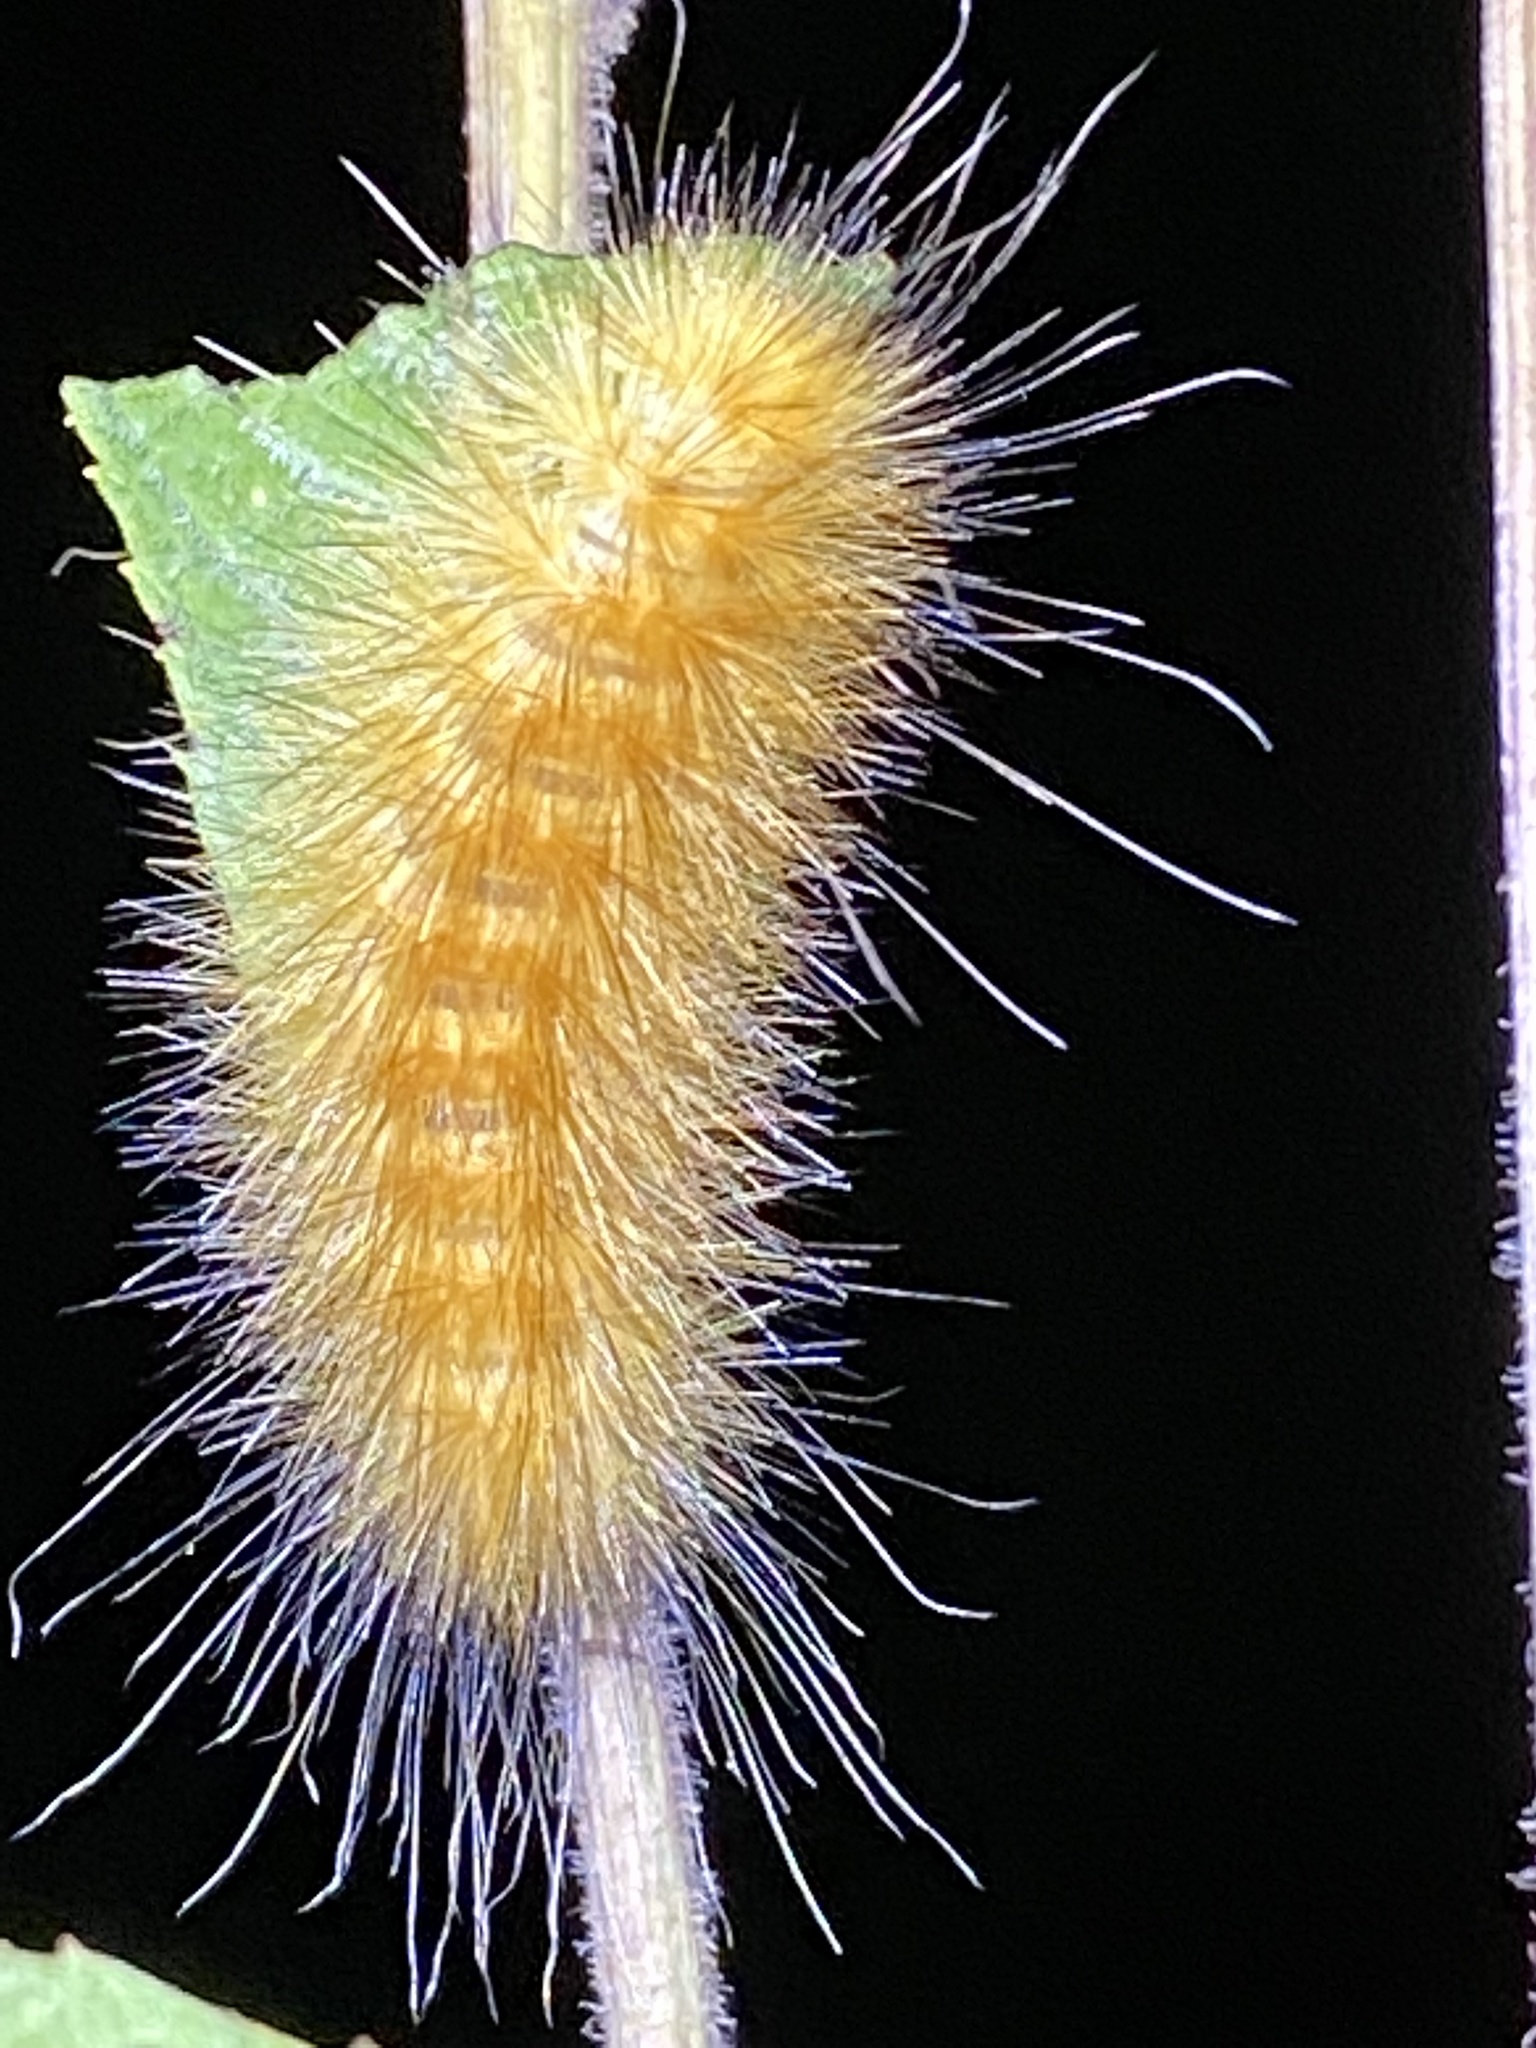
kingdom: Animalia
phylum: Arthropoda
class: Insecta
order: Lepidoptera
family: Erebidae
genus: Spilosoma
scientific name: Spilosoma virginica
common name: Virginia tiger moth
